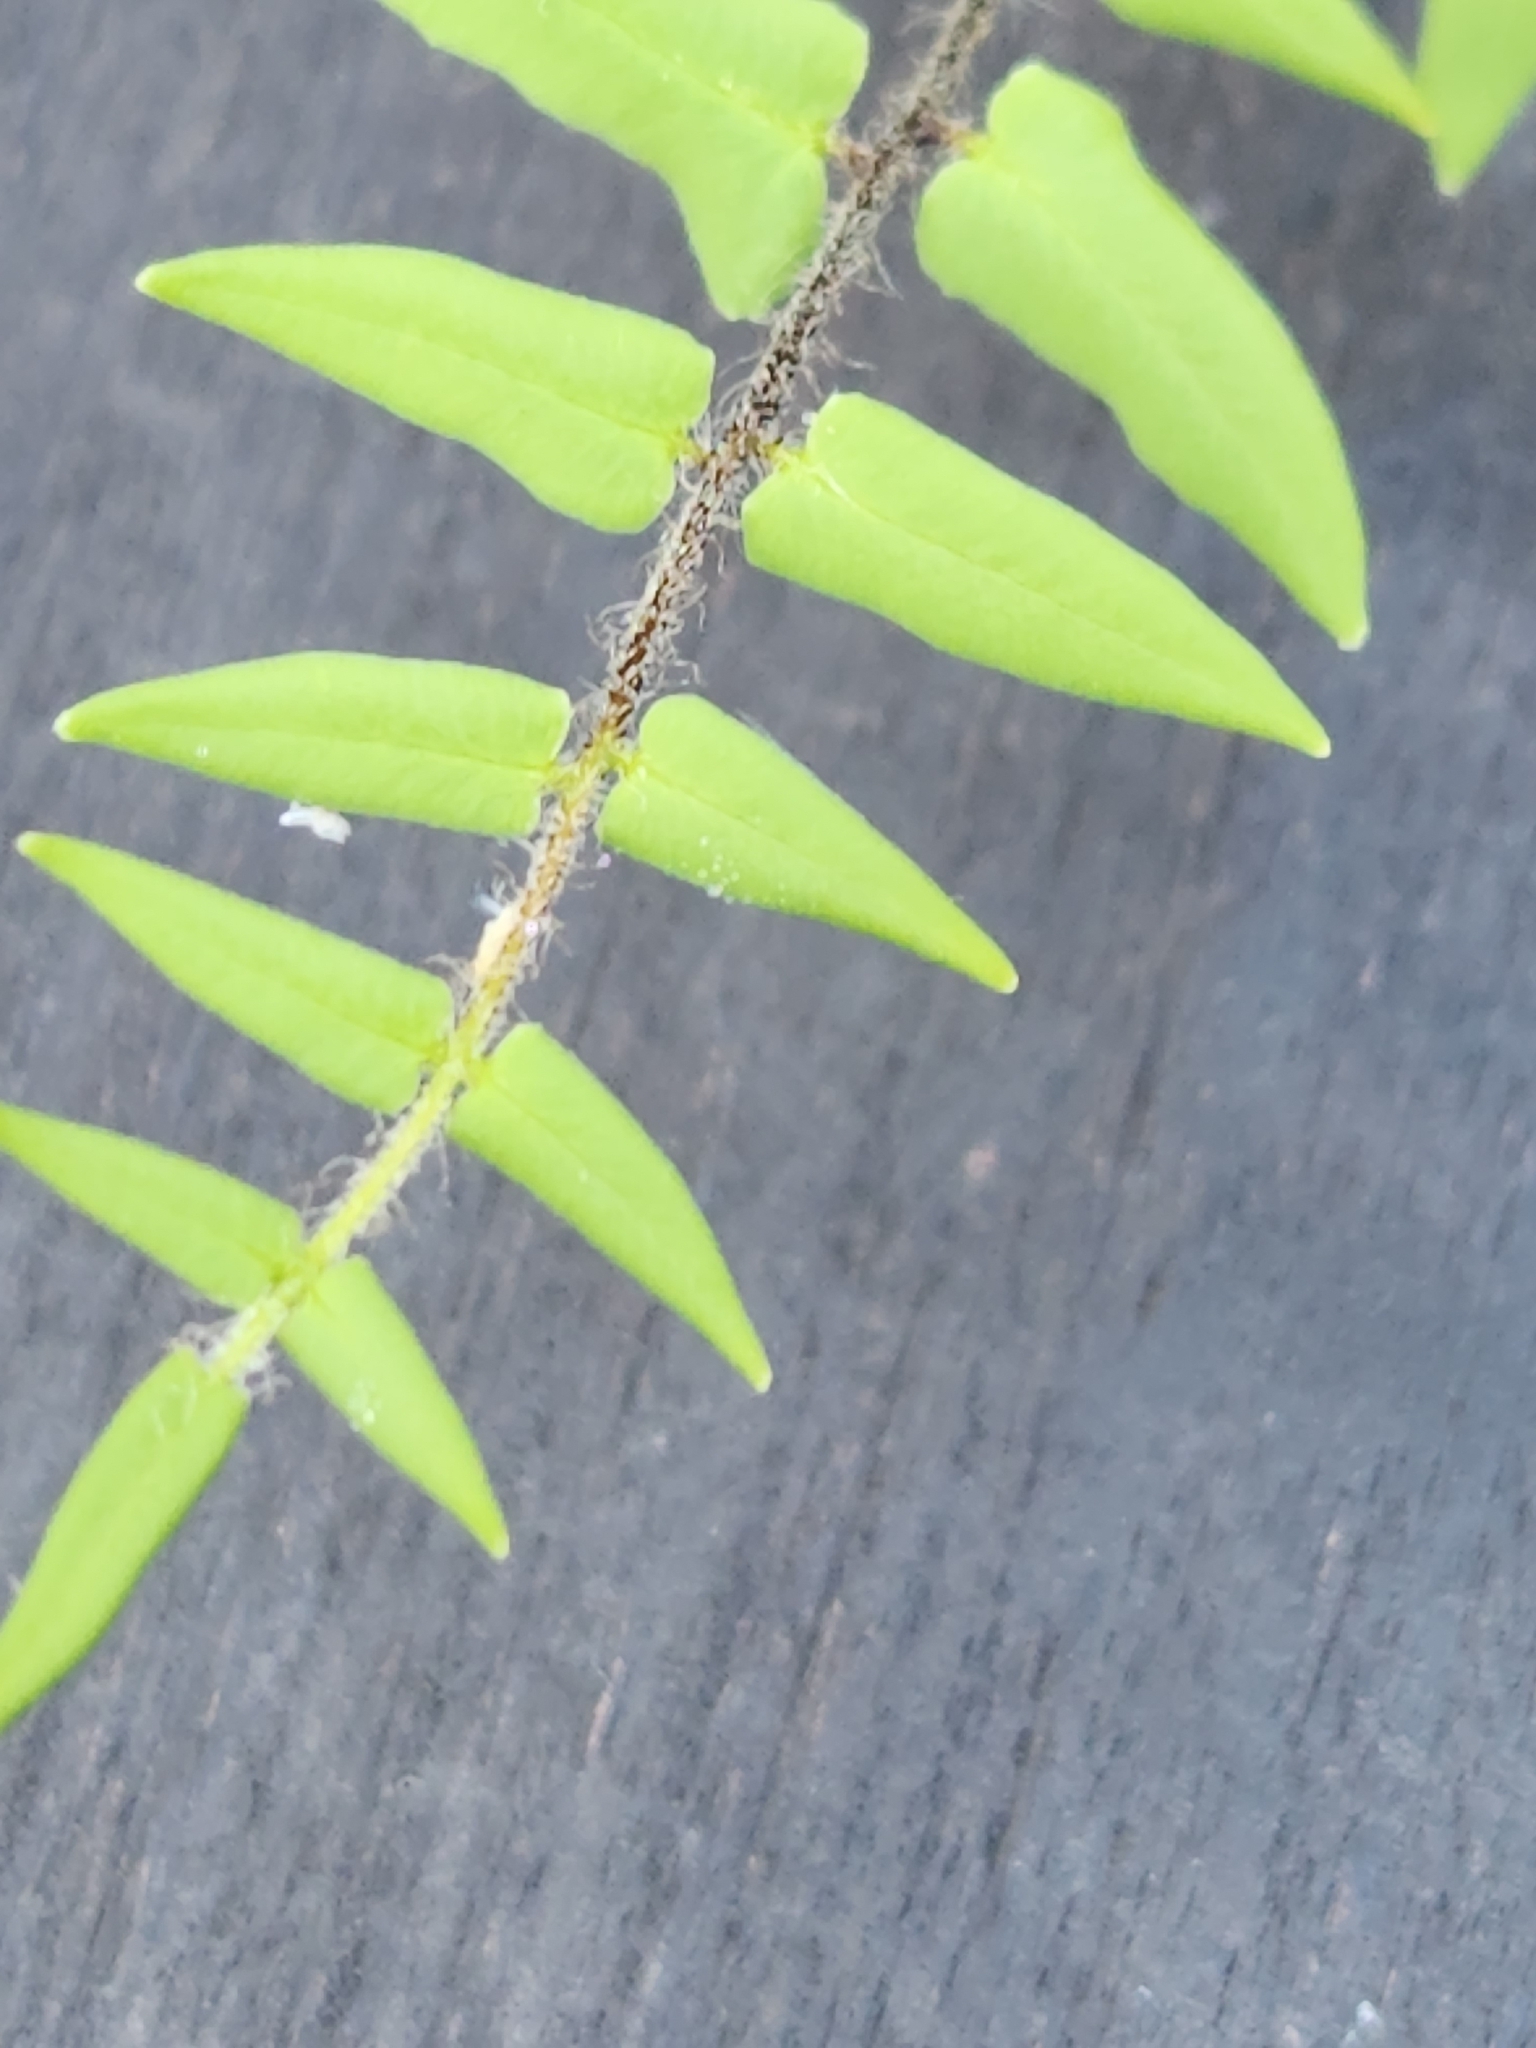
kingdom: Plantae
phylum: Tracheophyta
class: Polypodiopsida
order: Polypodiales
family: Pteridaceae
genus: Pellaea
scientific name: Pellaea atropurpurea
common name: Hairy cliffbrake
